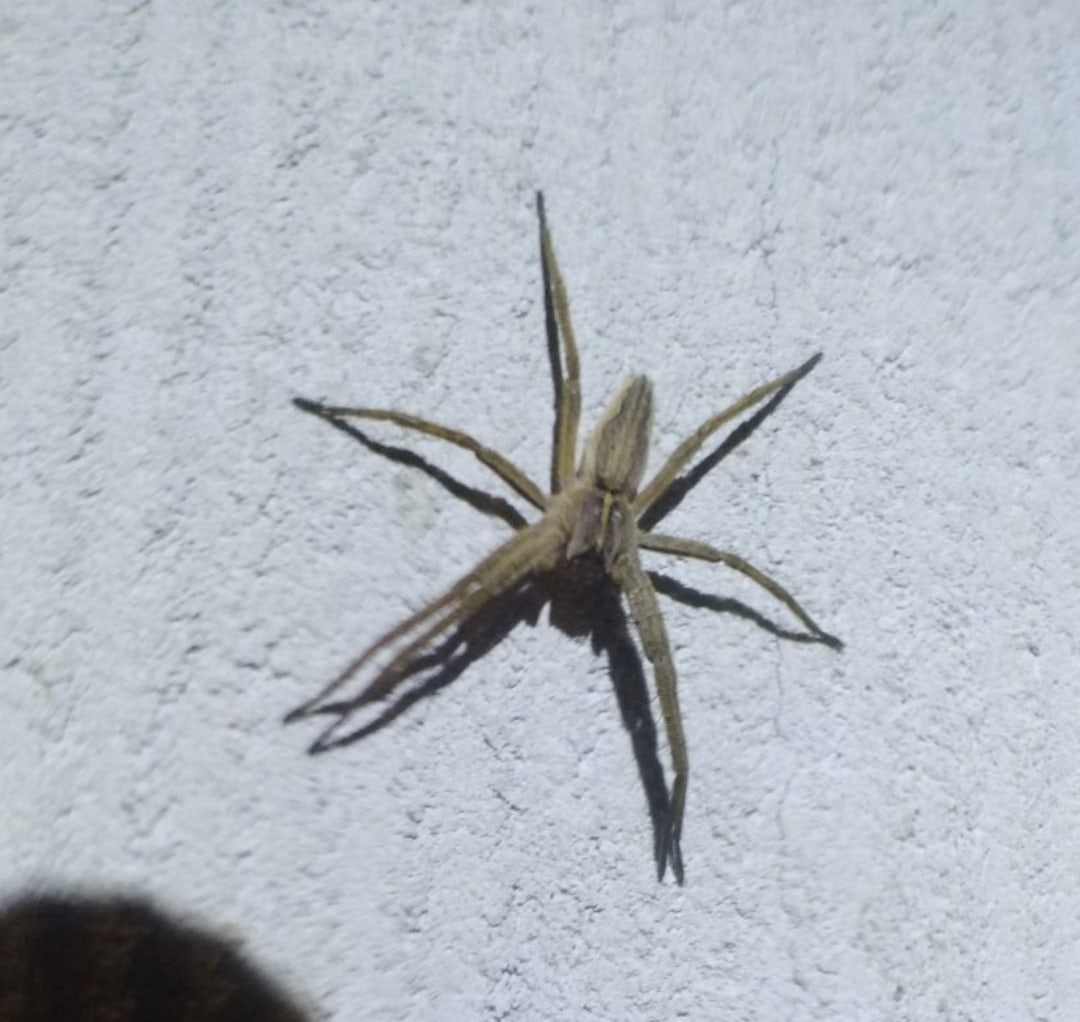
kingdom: Animalia
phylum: Arthropoda
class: Arachnida
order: Araneae
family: Pisauridae
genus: Pisaura
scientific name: Pisaura mirabilis
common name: Tent spider
